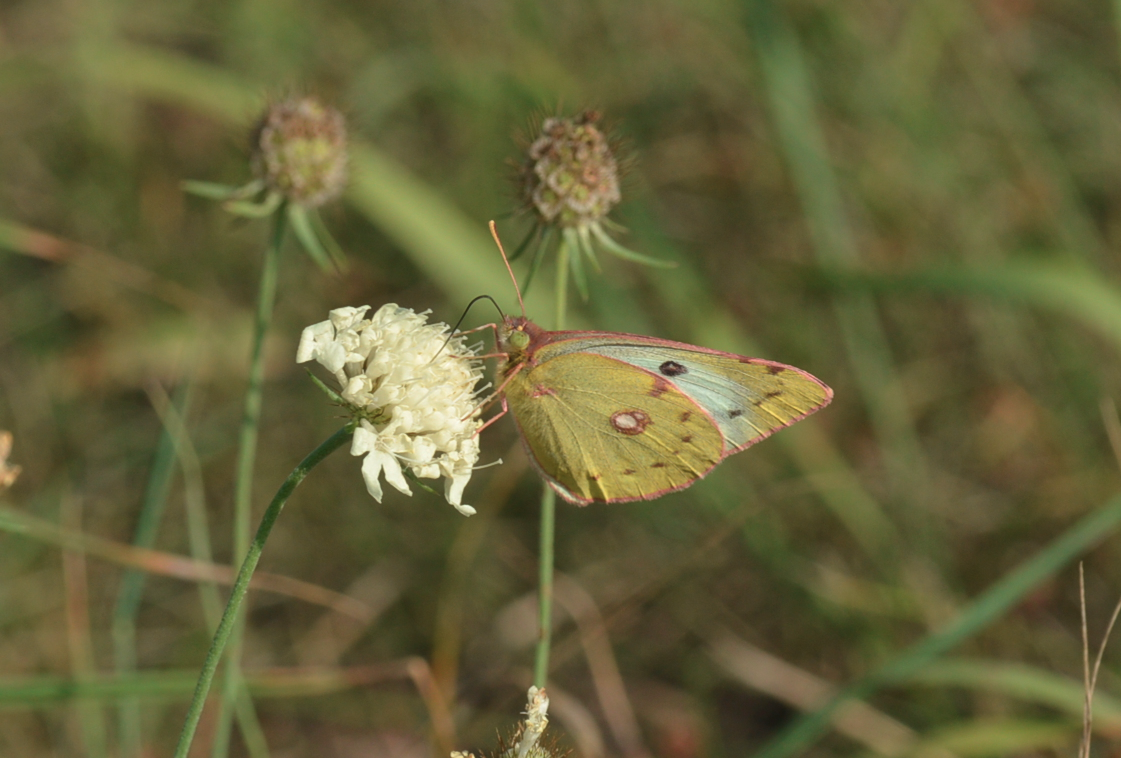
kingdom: Animalia
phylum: Arthropoda
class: Insecta
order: Lepidoptera
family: Pieridae
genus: Colias
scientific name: Colias hyale
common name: Pale clouded yellow
